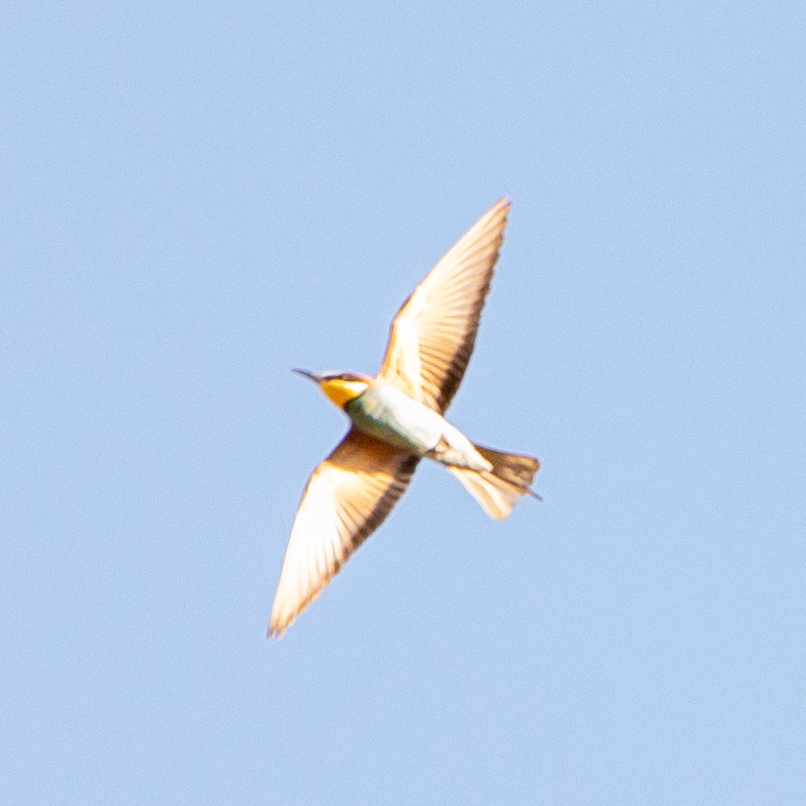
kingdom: Animalia
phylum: Chordata
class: Aves
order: Coraciiformes
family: Meropidae
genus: Merops
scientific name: Merops apiaster
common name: European bee-eater
